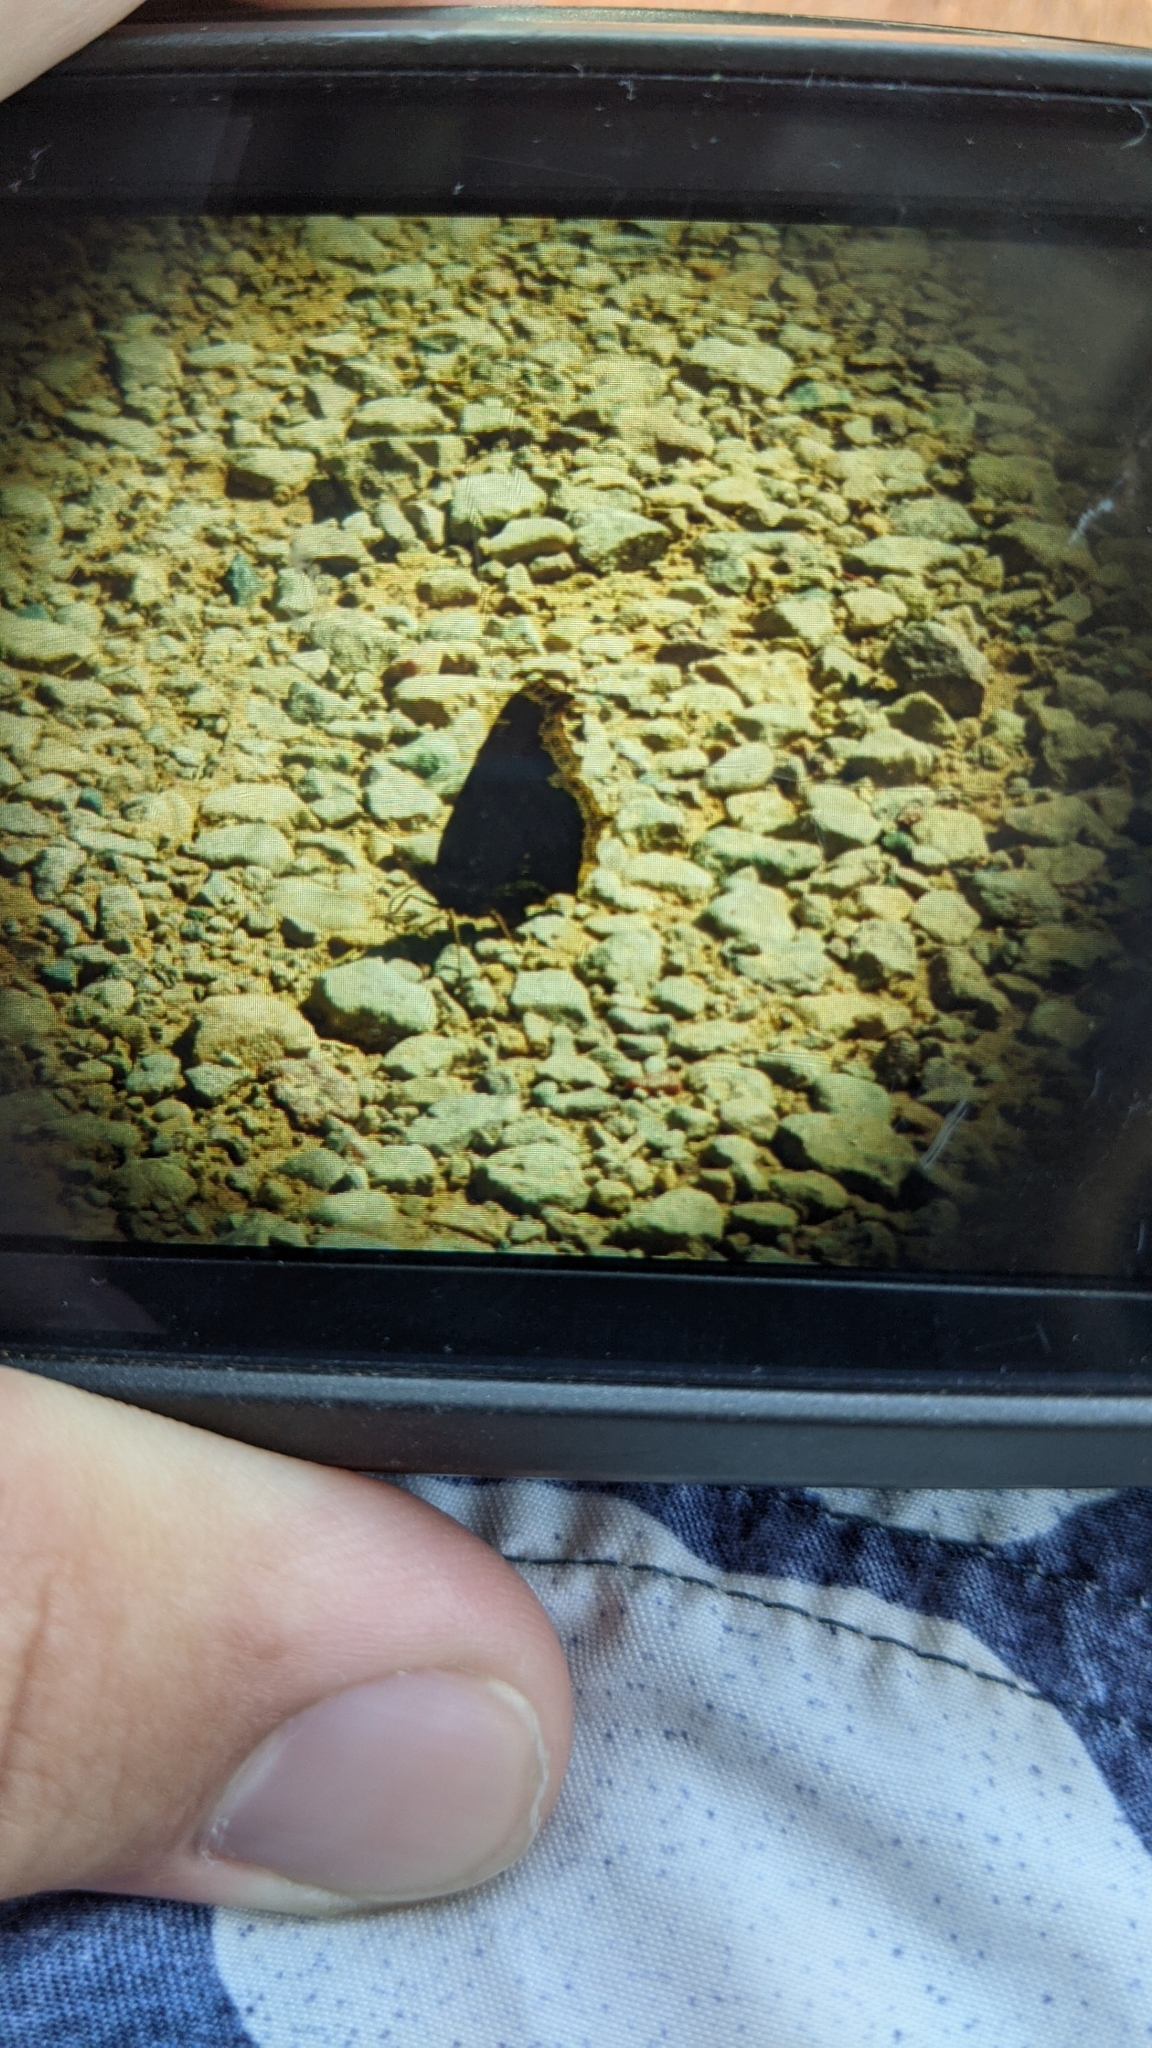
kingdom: Animalia
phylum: Arthropoda
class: Insecta
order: Lepidoptera
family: Nymphalidae
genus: Nymphalis
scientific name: Nymphalis antiopa
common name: Camberwell beauty
